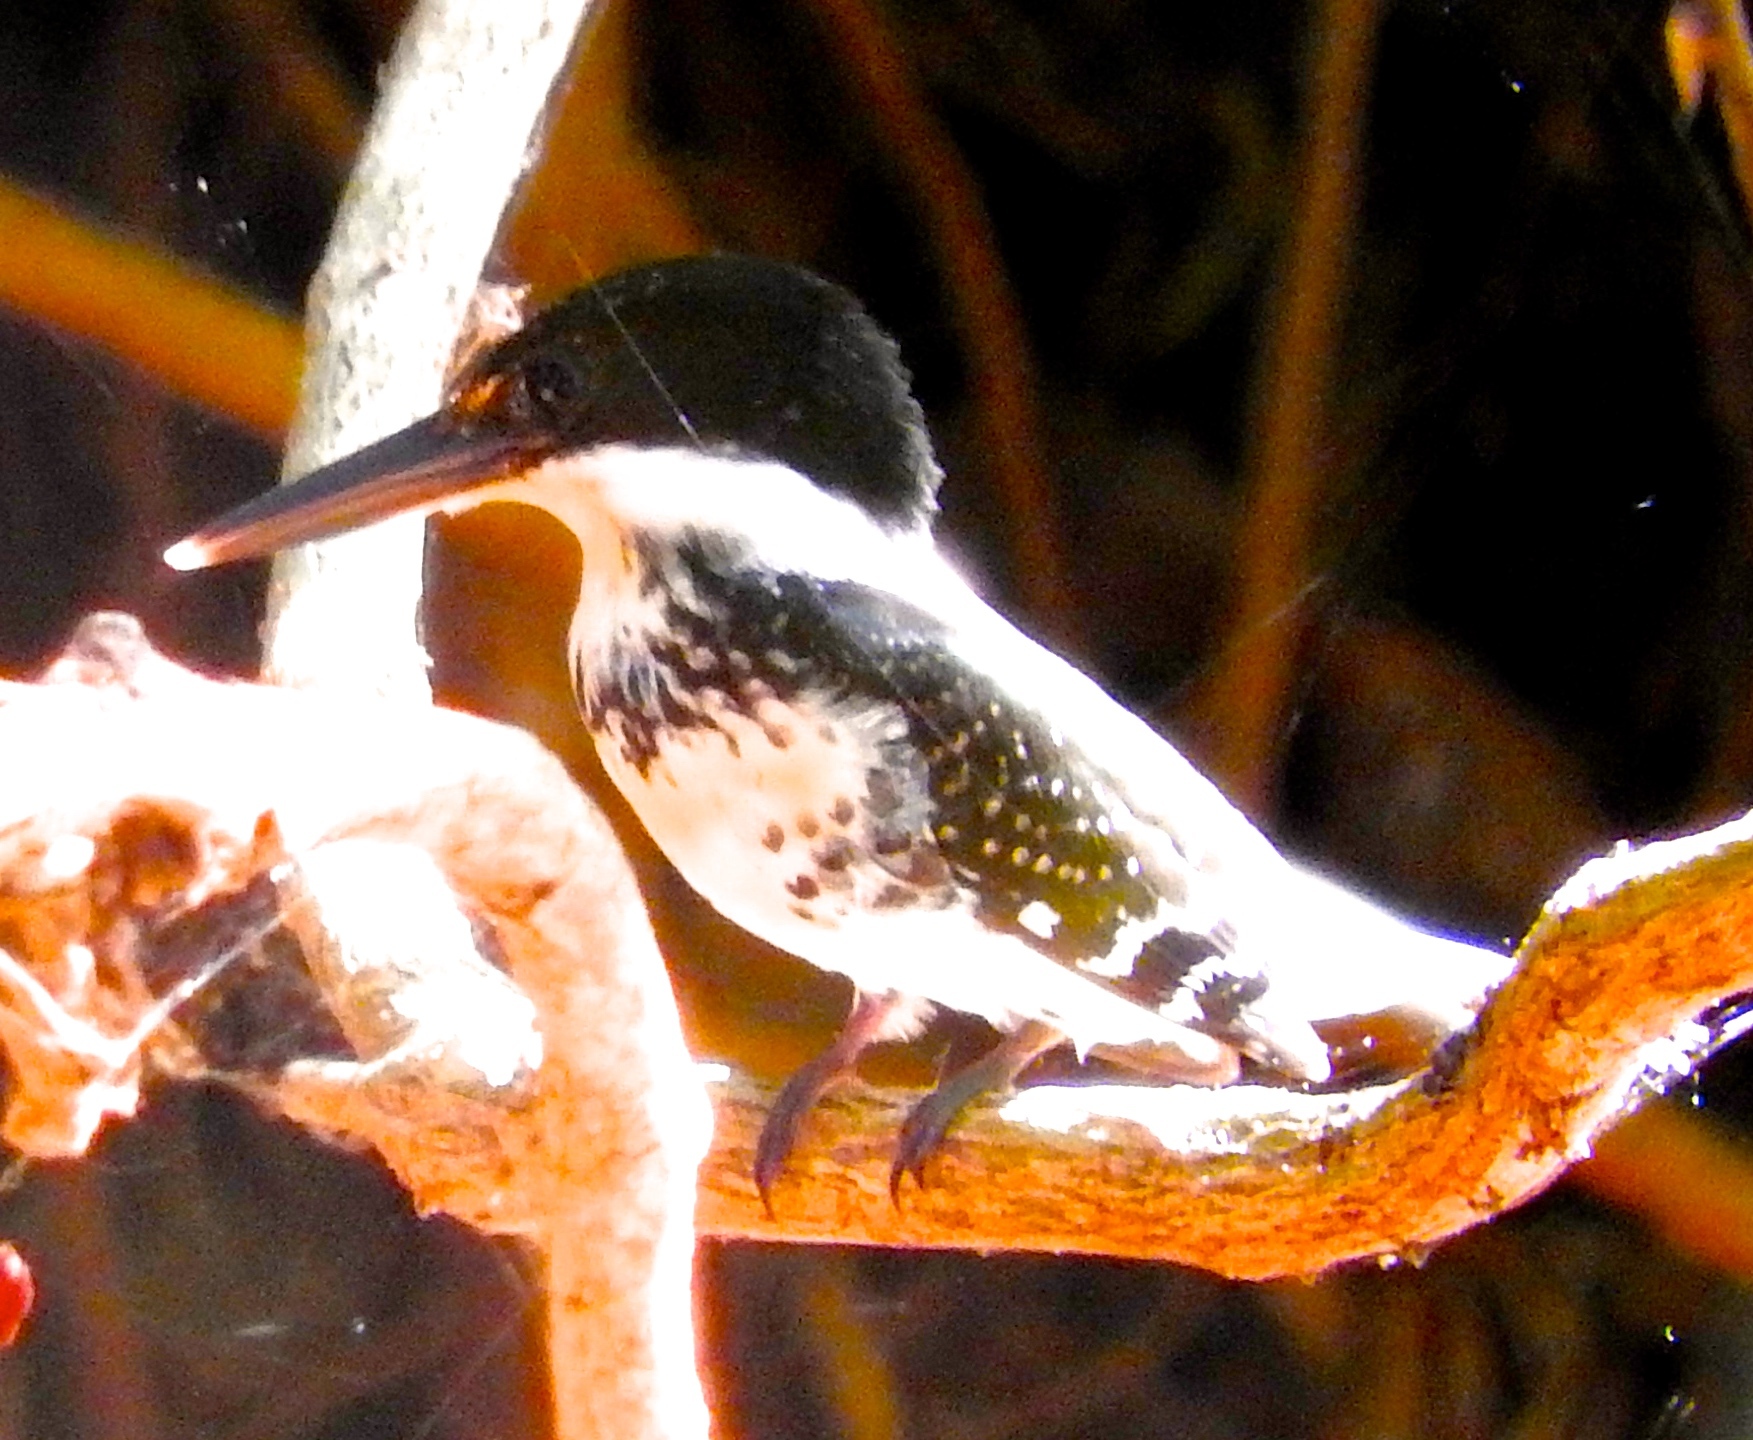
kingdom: Animalia
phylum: Chordata
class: Aves
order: Coraciiformes
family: Alcedinidae
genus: Chloroceryle
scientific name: Chloroceryle americana
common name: Green kingfisher
